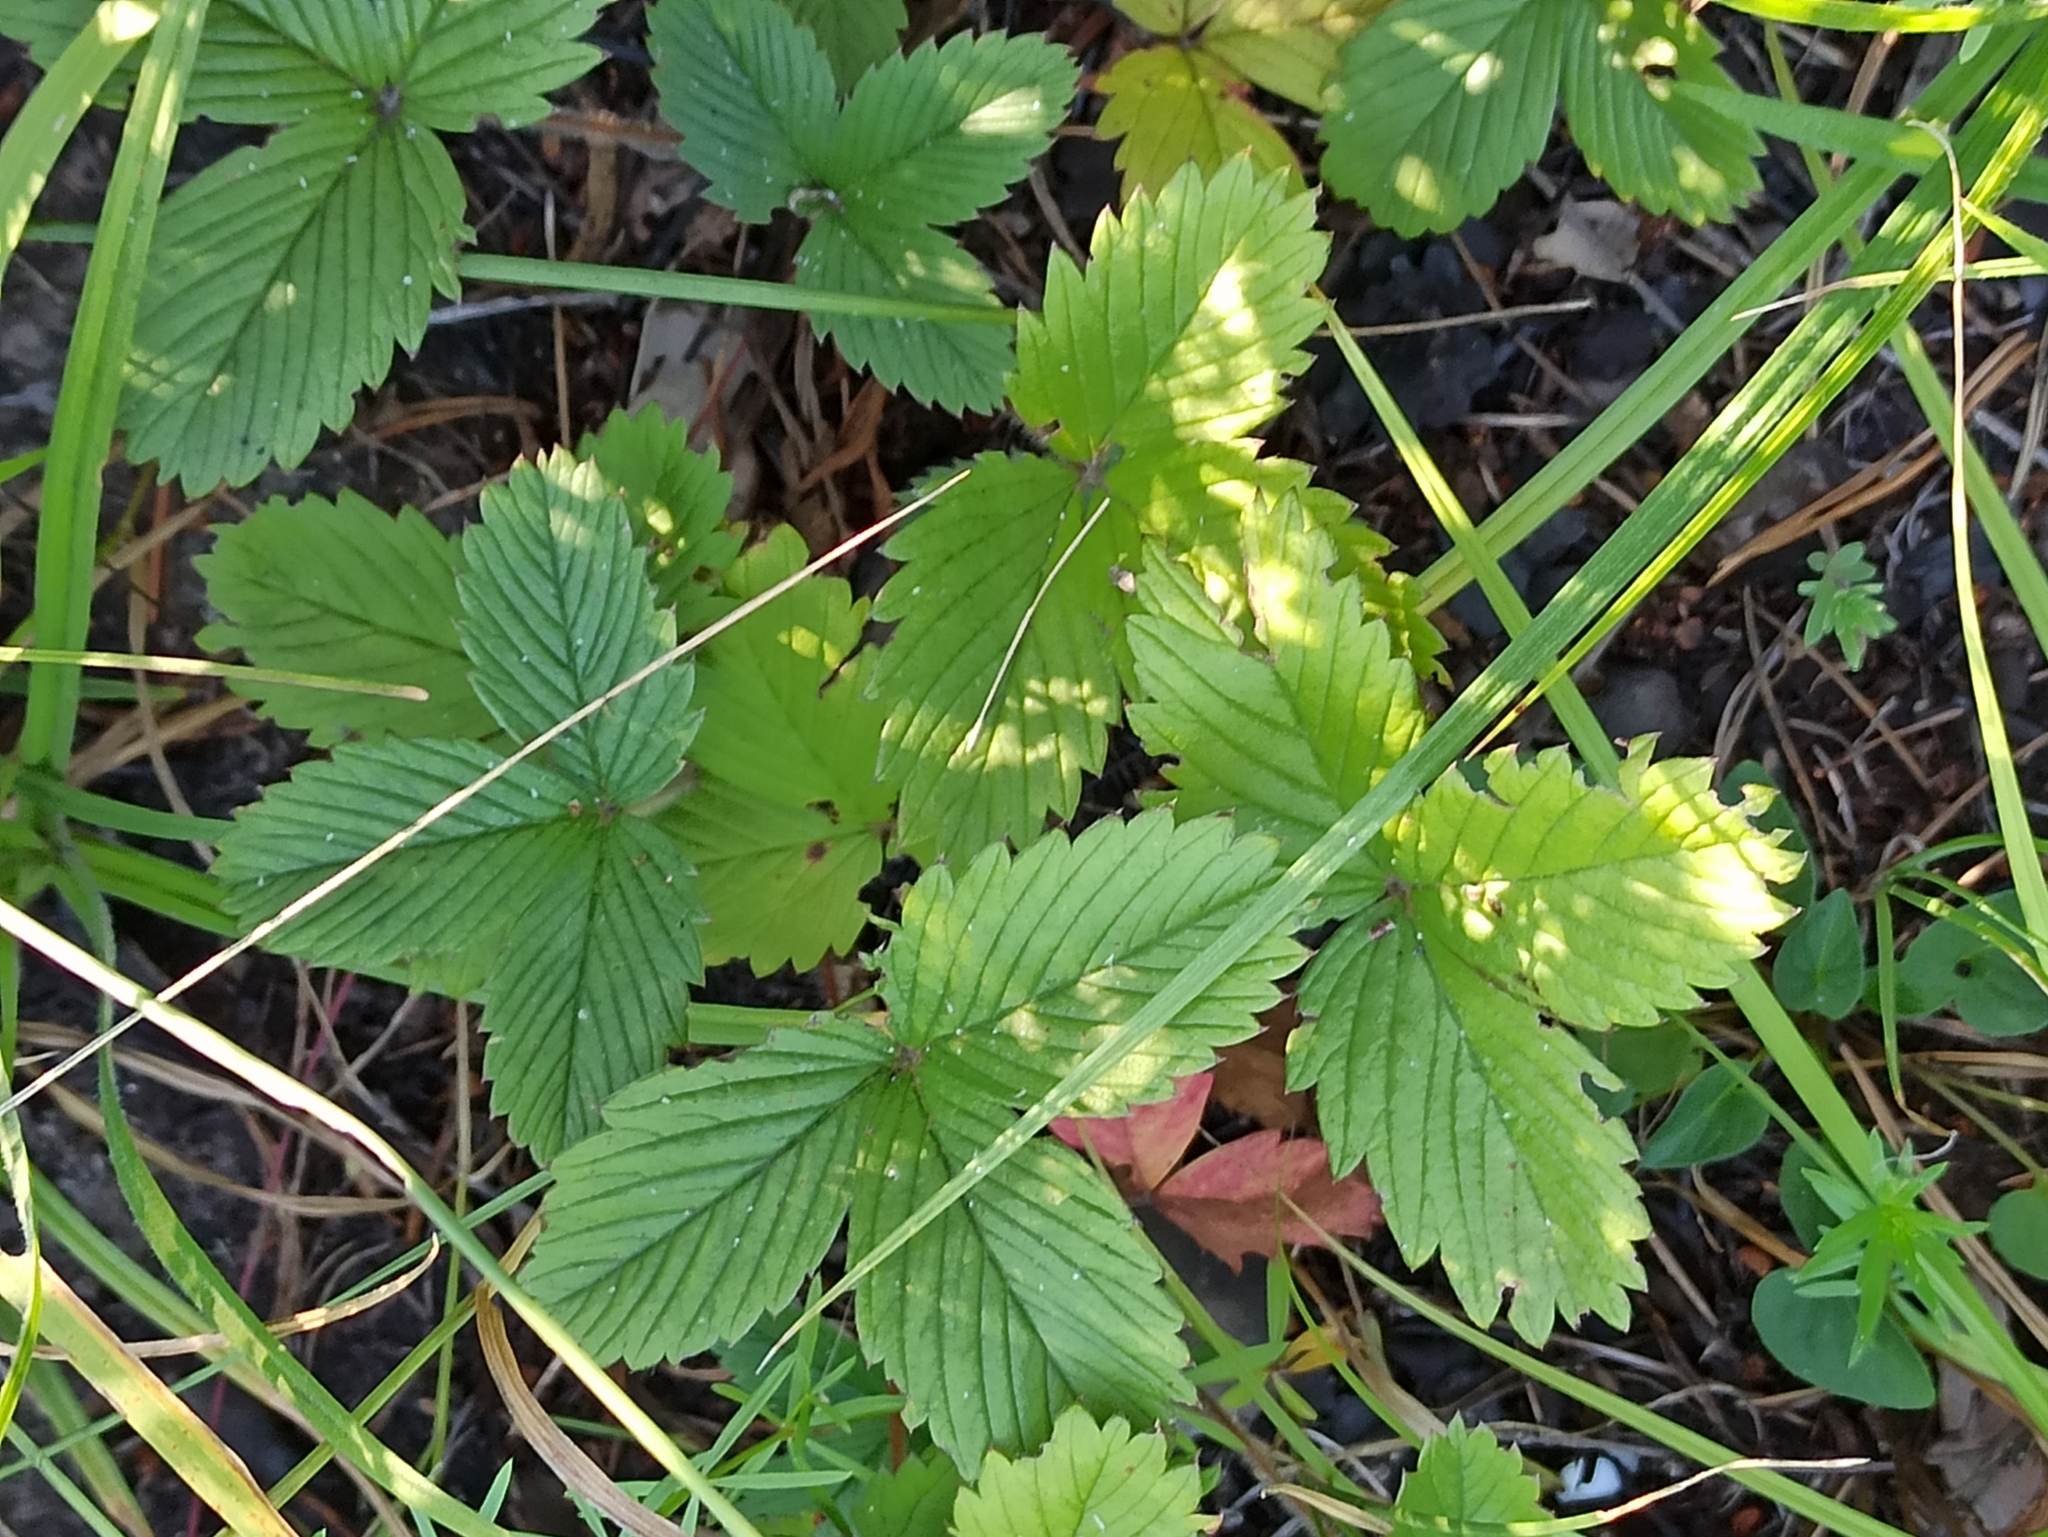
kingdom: Plantae
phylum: Tracheophyta
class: Magnoliopsida
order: Rosales
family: Rosaceae
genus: Fragaria
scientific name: Fragaria viridis
